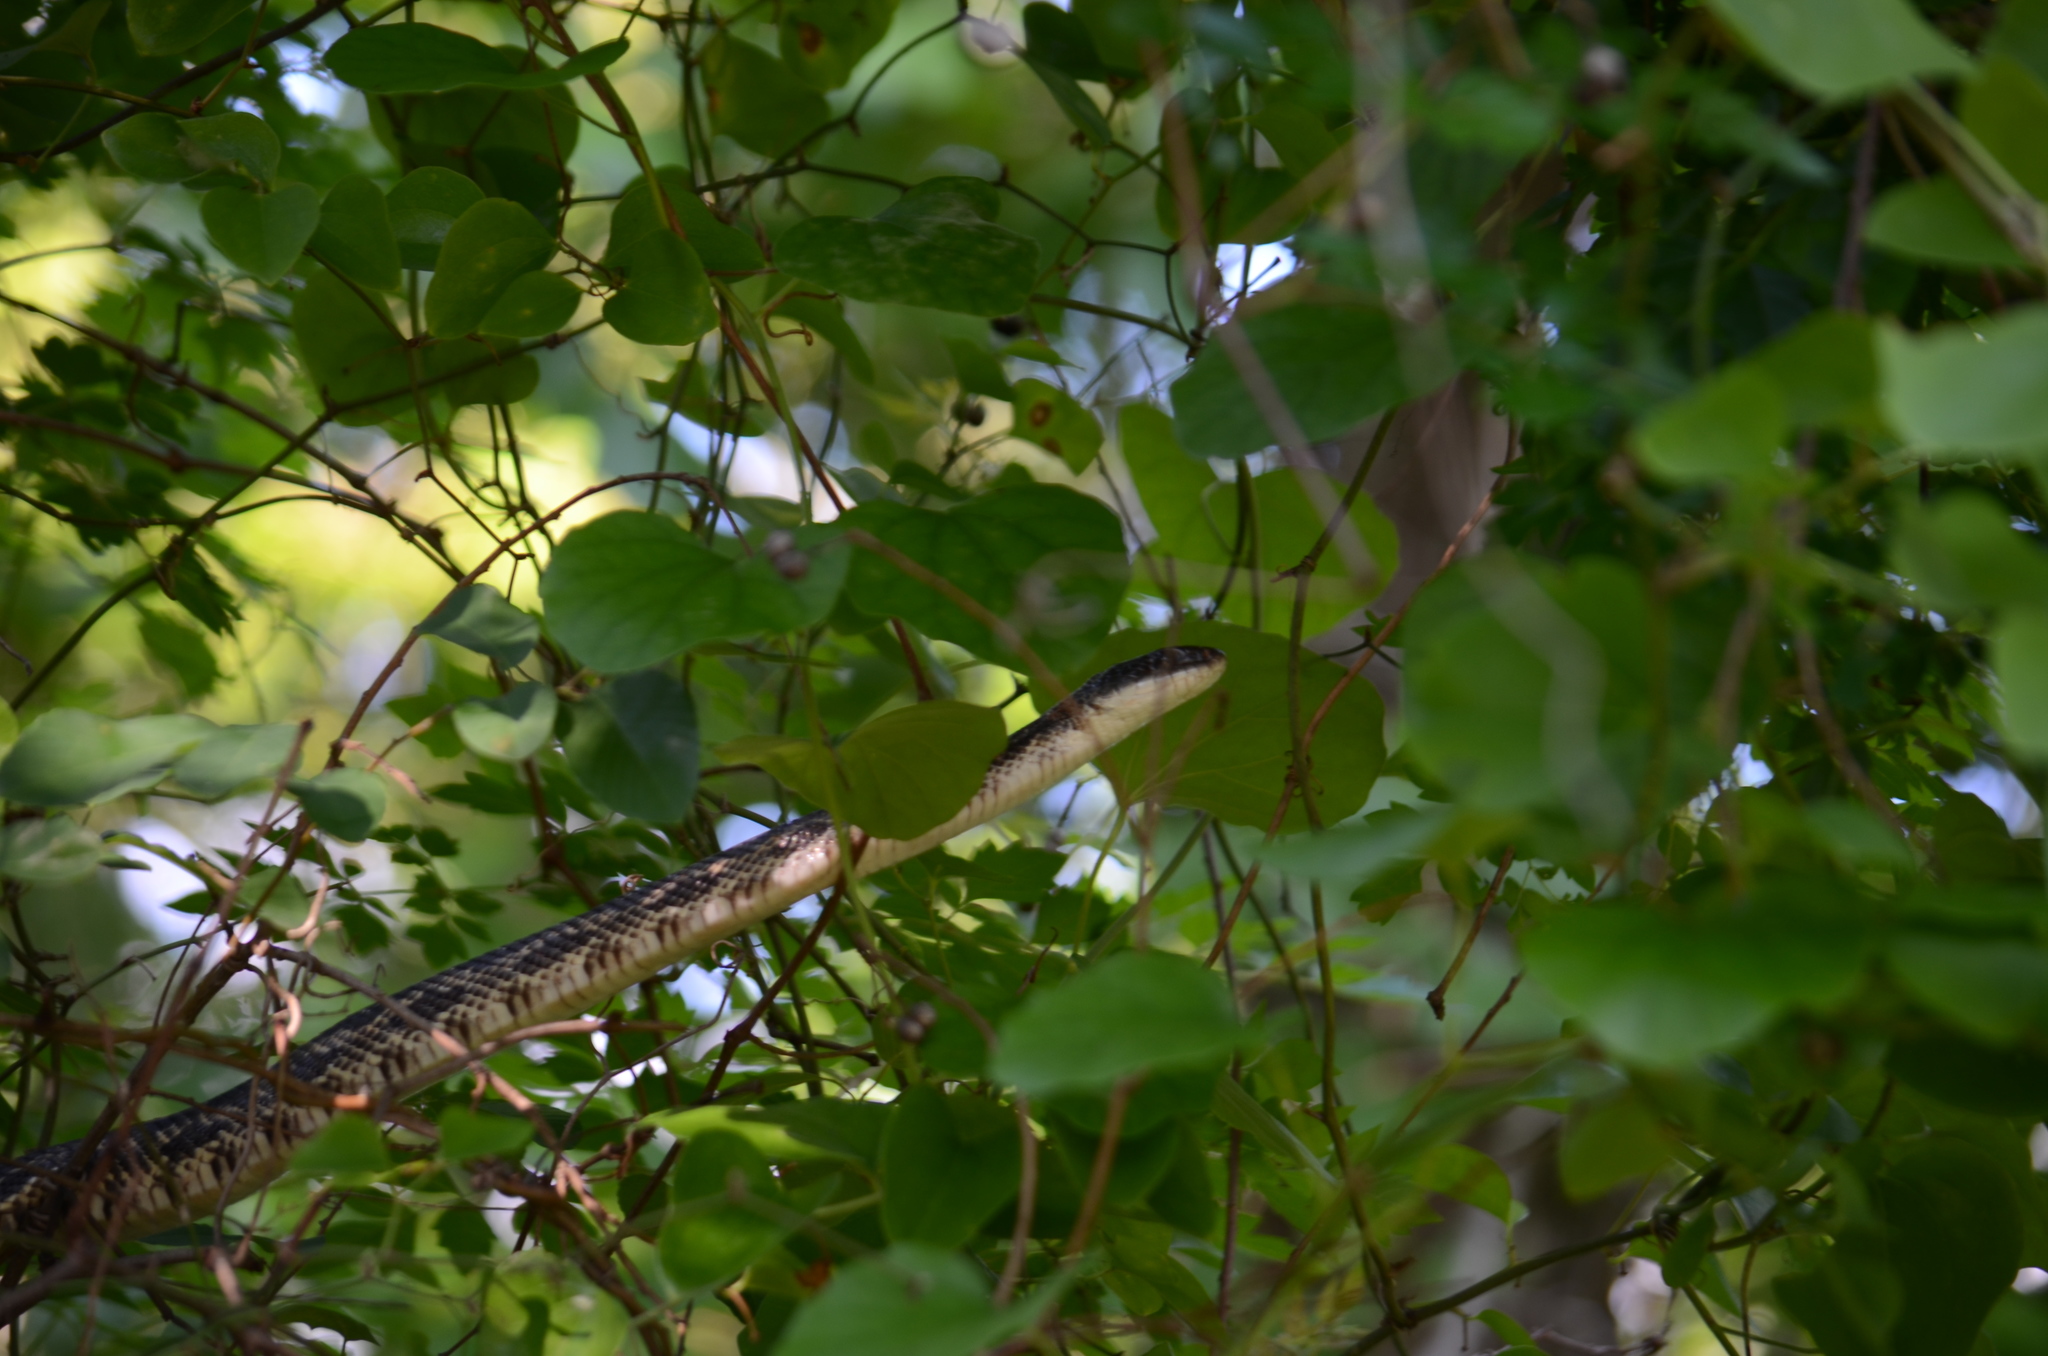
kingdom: Animalia
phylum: Chordata
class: Squamata
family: Colubridae
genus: Pantherophis
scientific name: Pantherophis obsoletus
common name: Black rat snake
